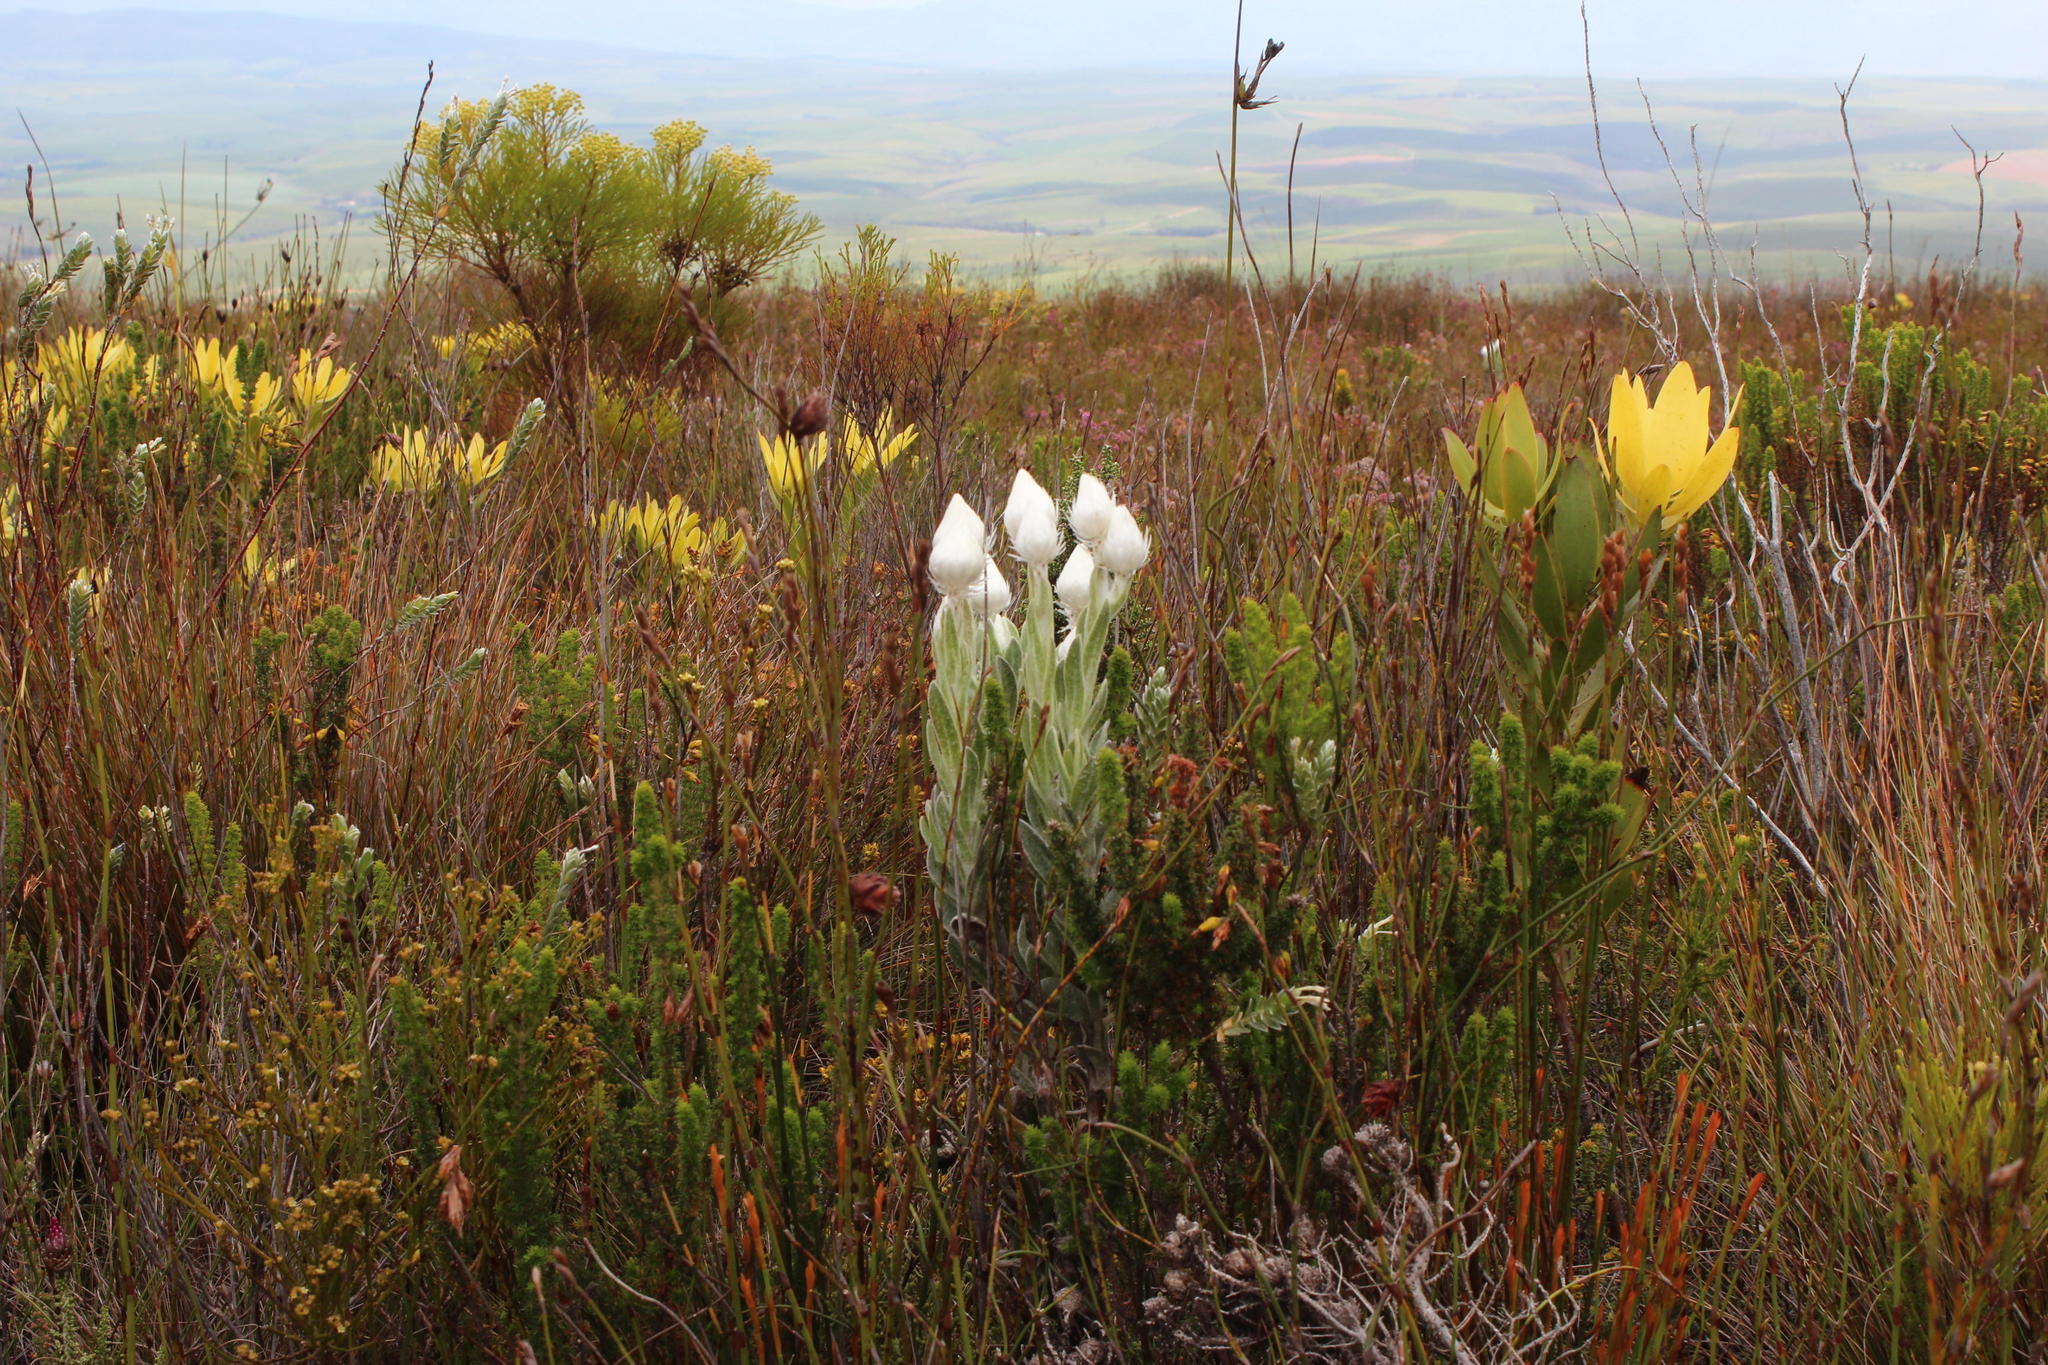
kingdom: Plantae
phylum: Tracheophyta
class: Magnoliopsida
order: Asterales
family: Asteraceae
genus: Syncarpha
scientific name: Syncarpha vestita
